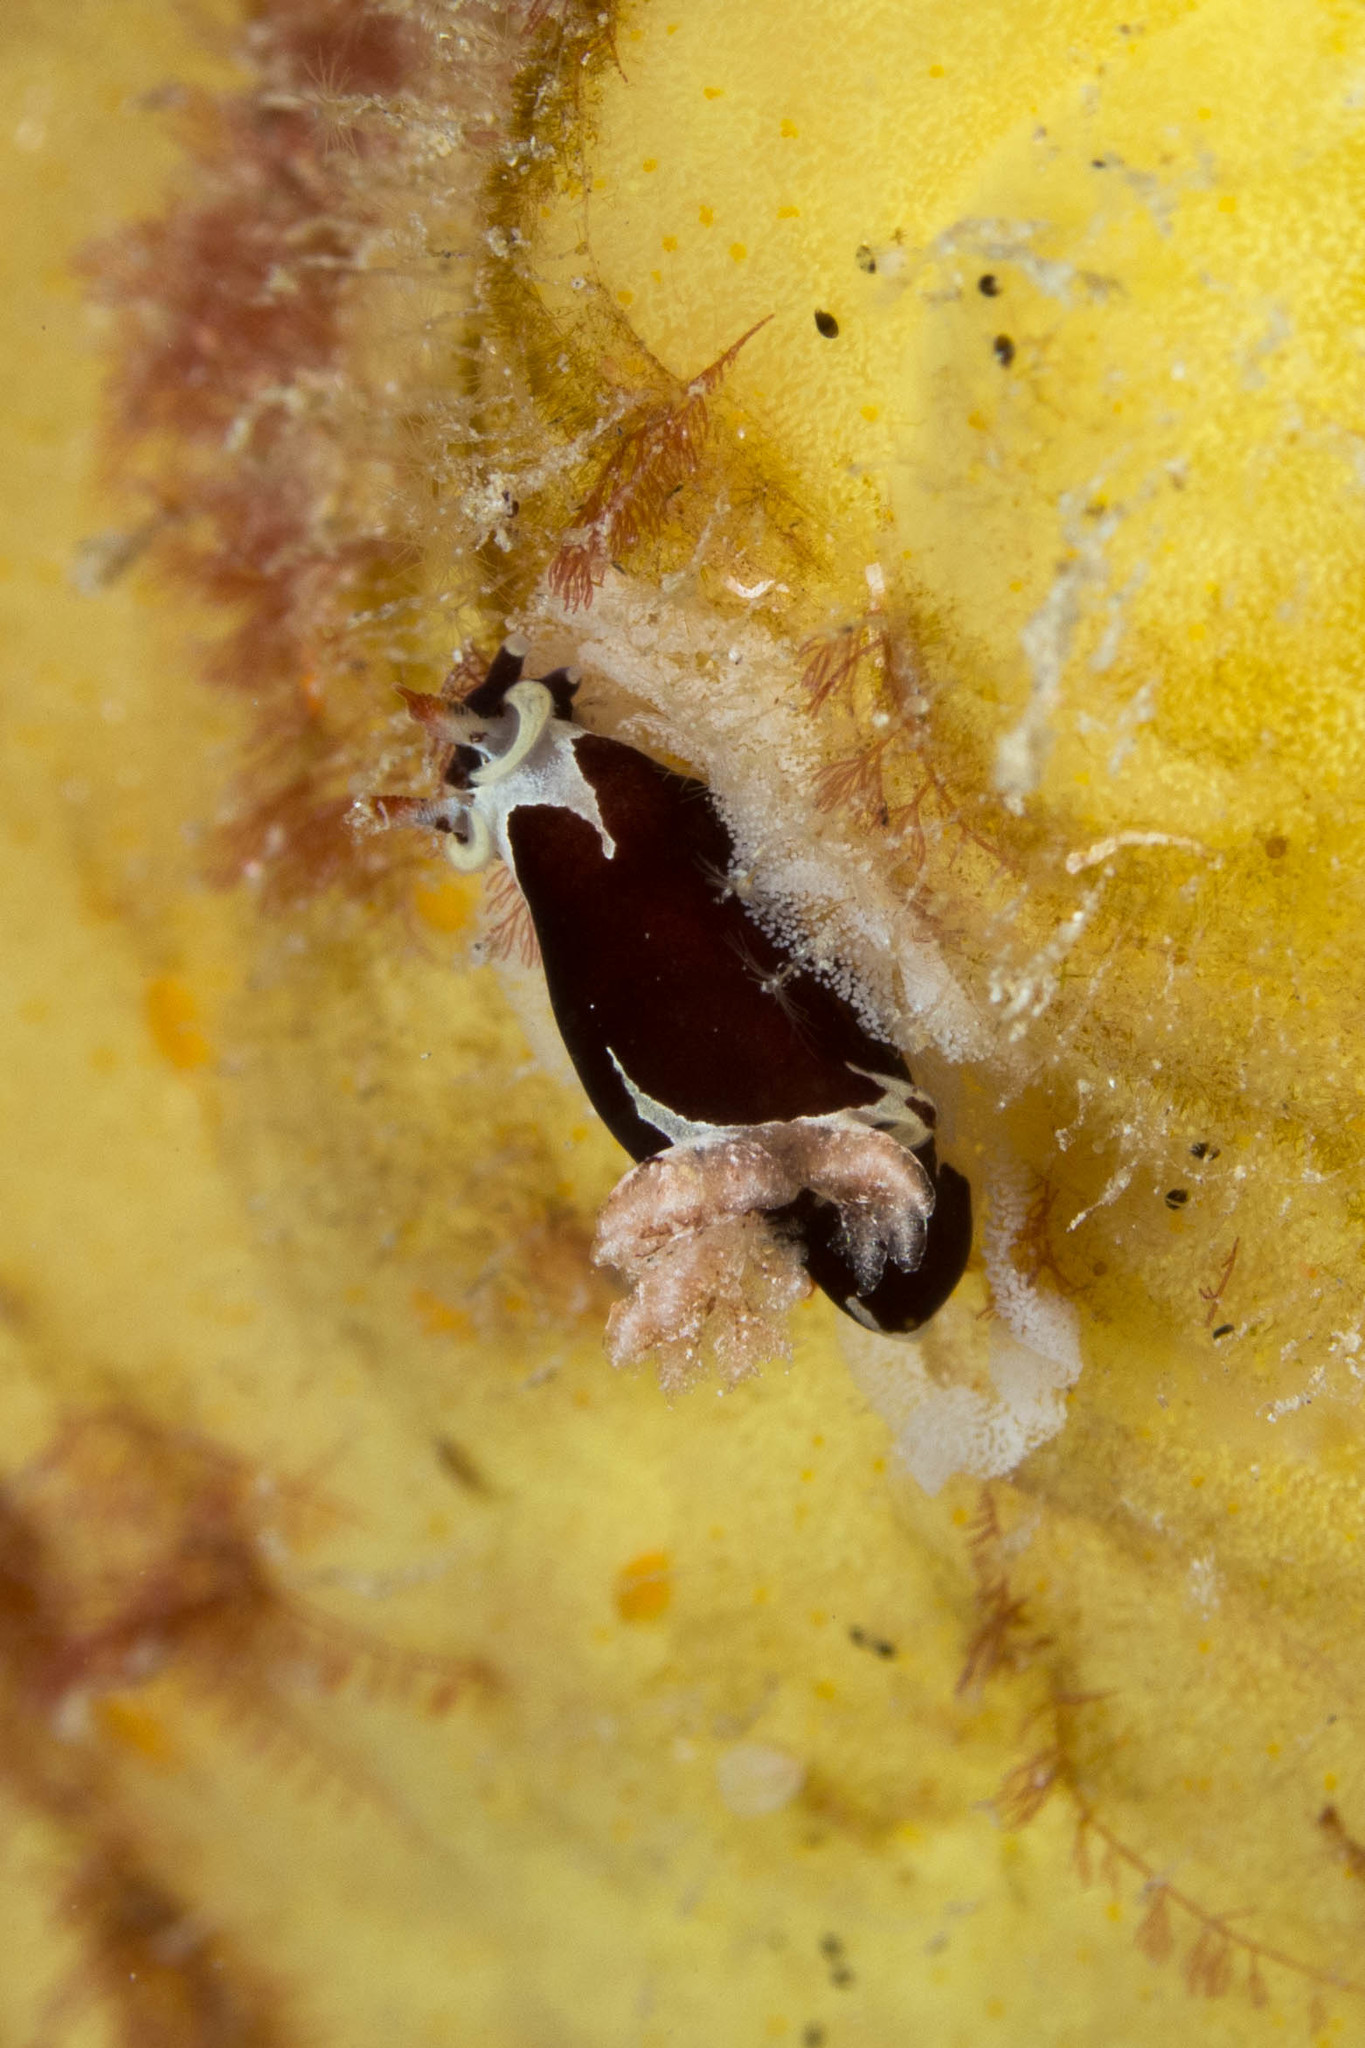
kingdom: Animalia
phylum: Mollusca
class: Gastropoda
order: Nudibranchia
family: Goniodorididae
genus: Trapania
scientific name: Trapania safracornia
